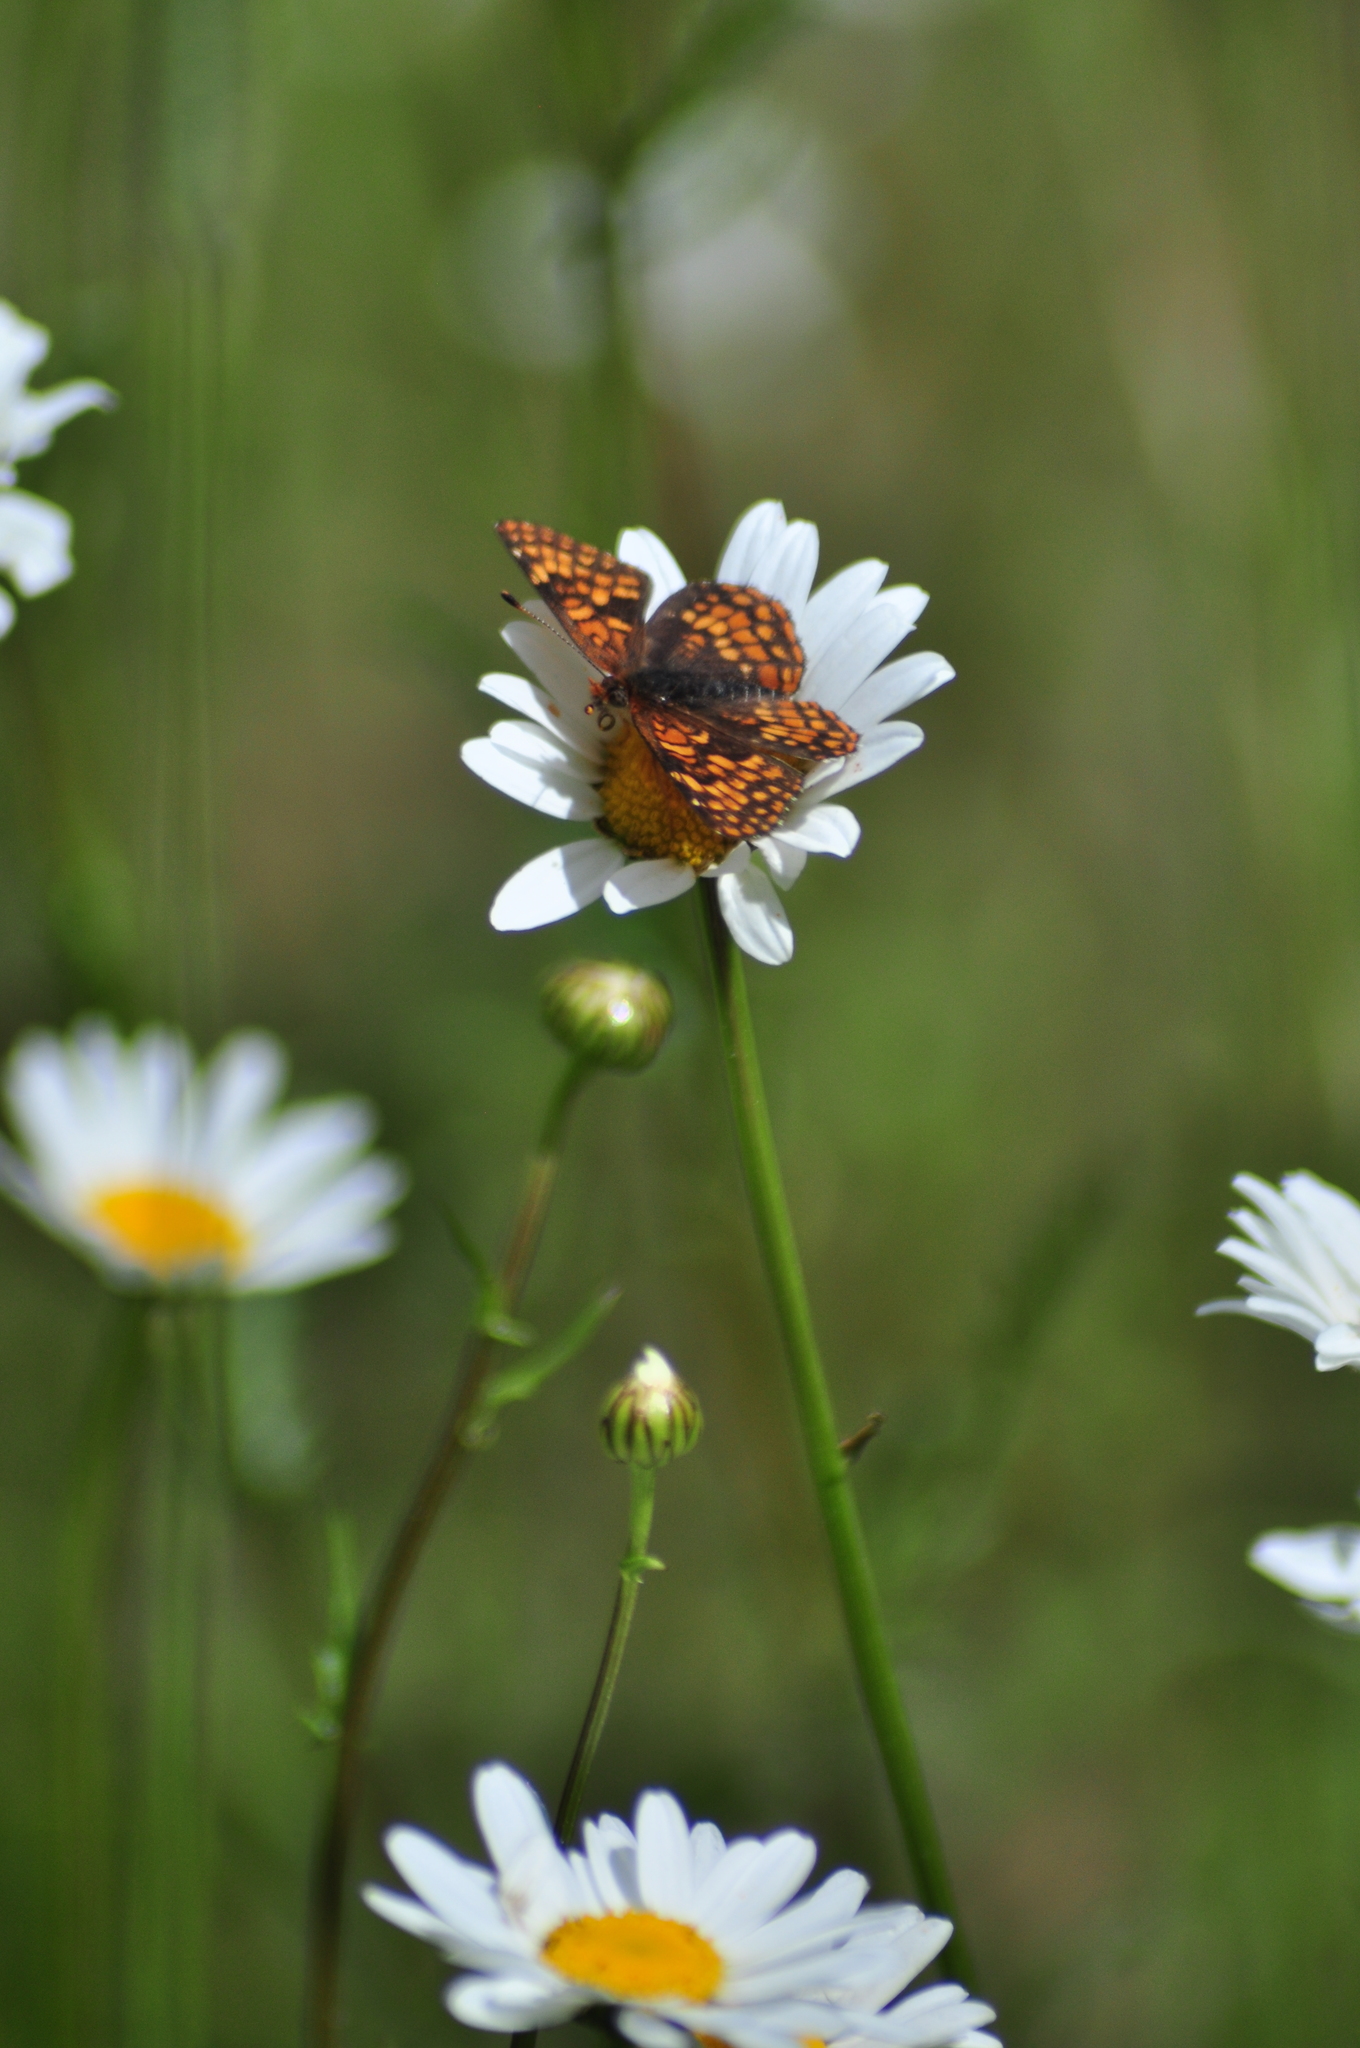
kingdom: Animalia
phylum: Arthropoda
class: Insecta
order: Lepidoptera
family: Nymphalidae
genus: Chlosyne
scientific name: Chlosyne palla
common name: Northern checkerspot
